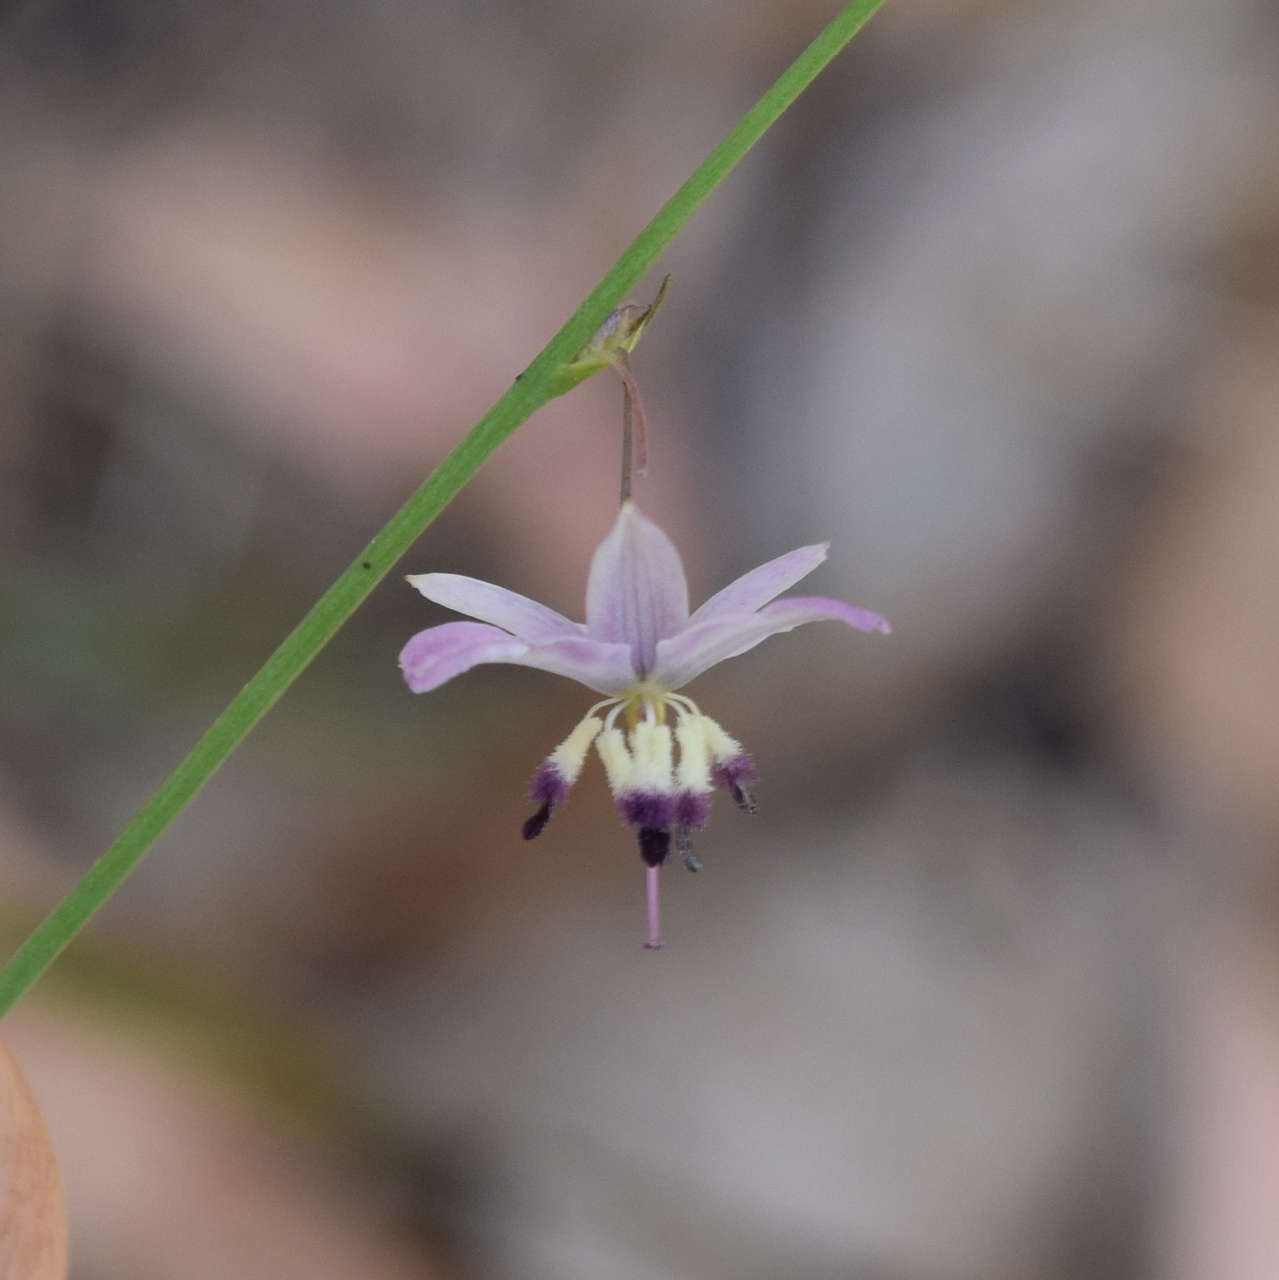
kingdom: Plantae
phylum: Tracheophyta
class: Liliopsida
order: Asparagales
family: Asparagaceae
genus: Arthropodium
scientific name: Arthropodium milleflorum
